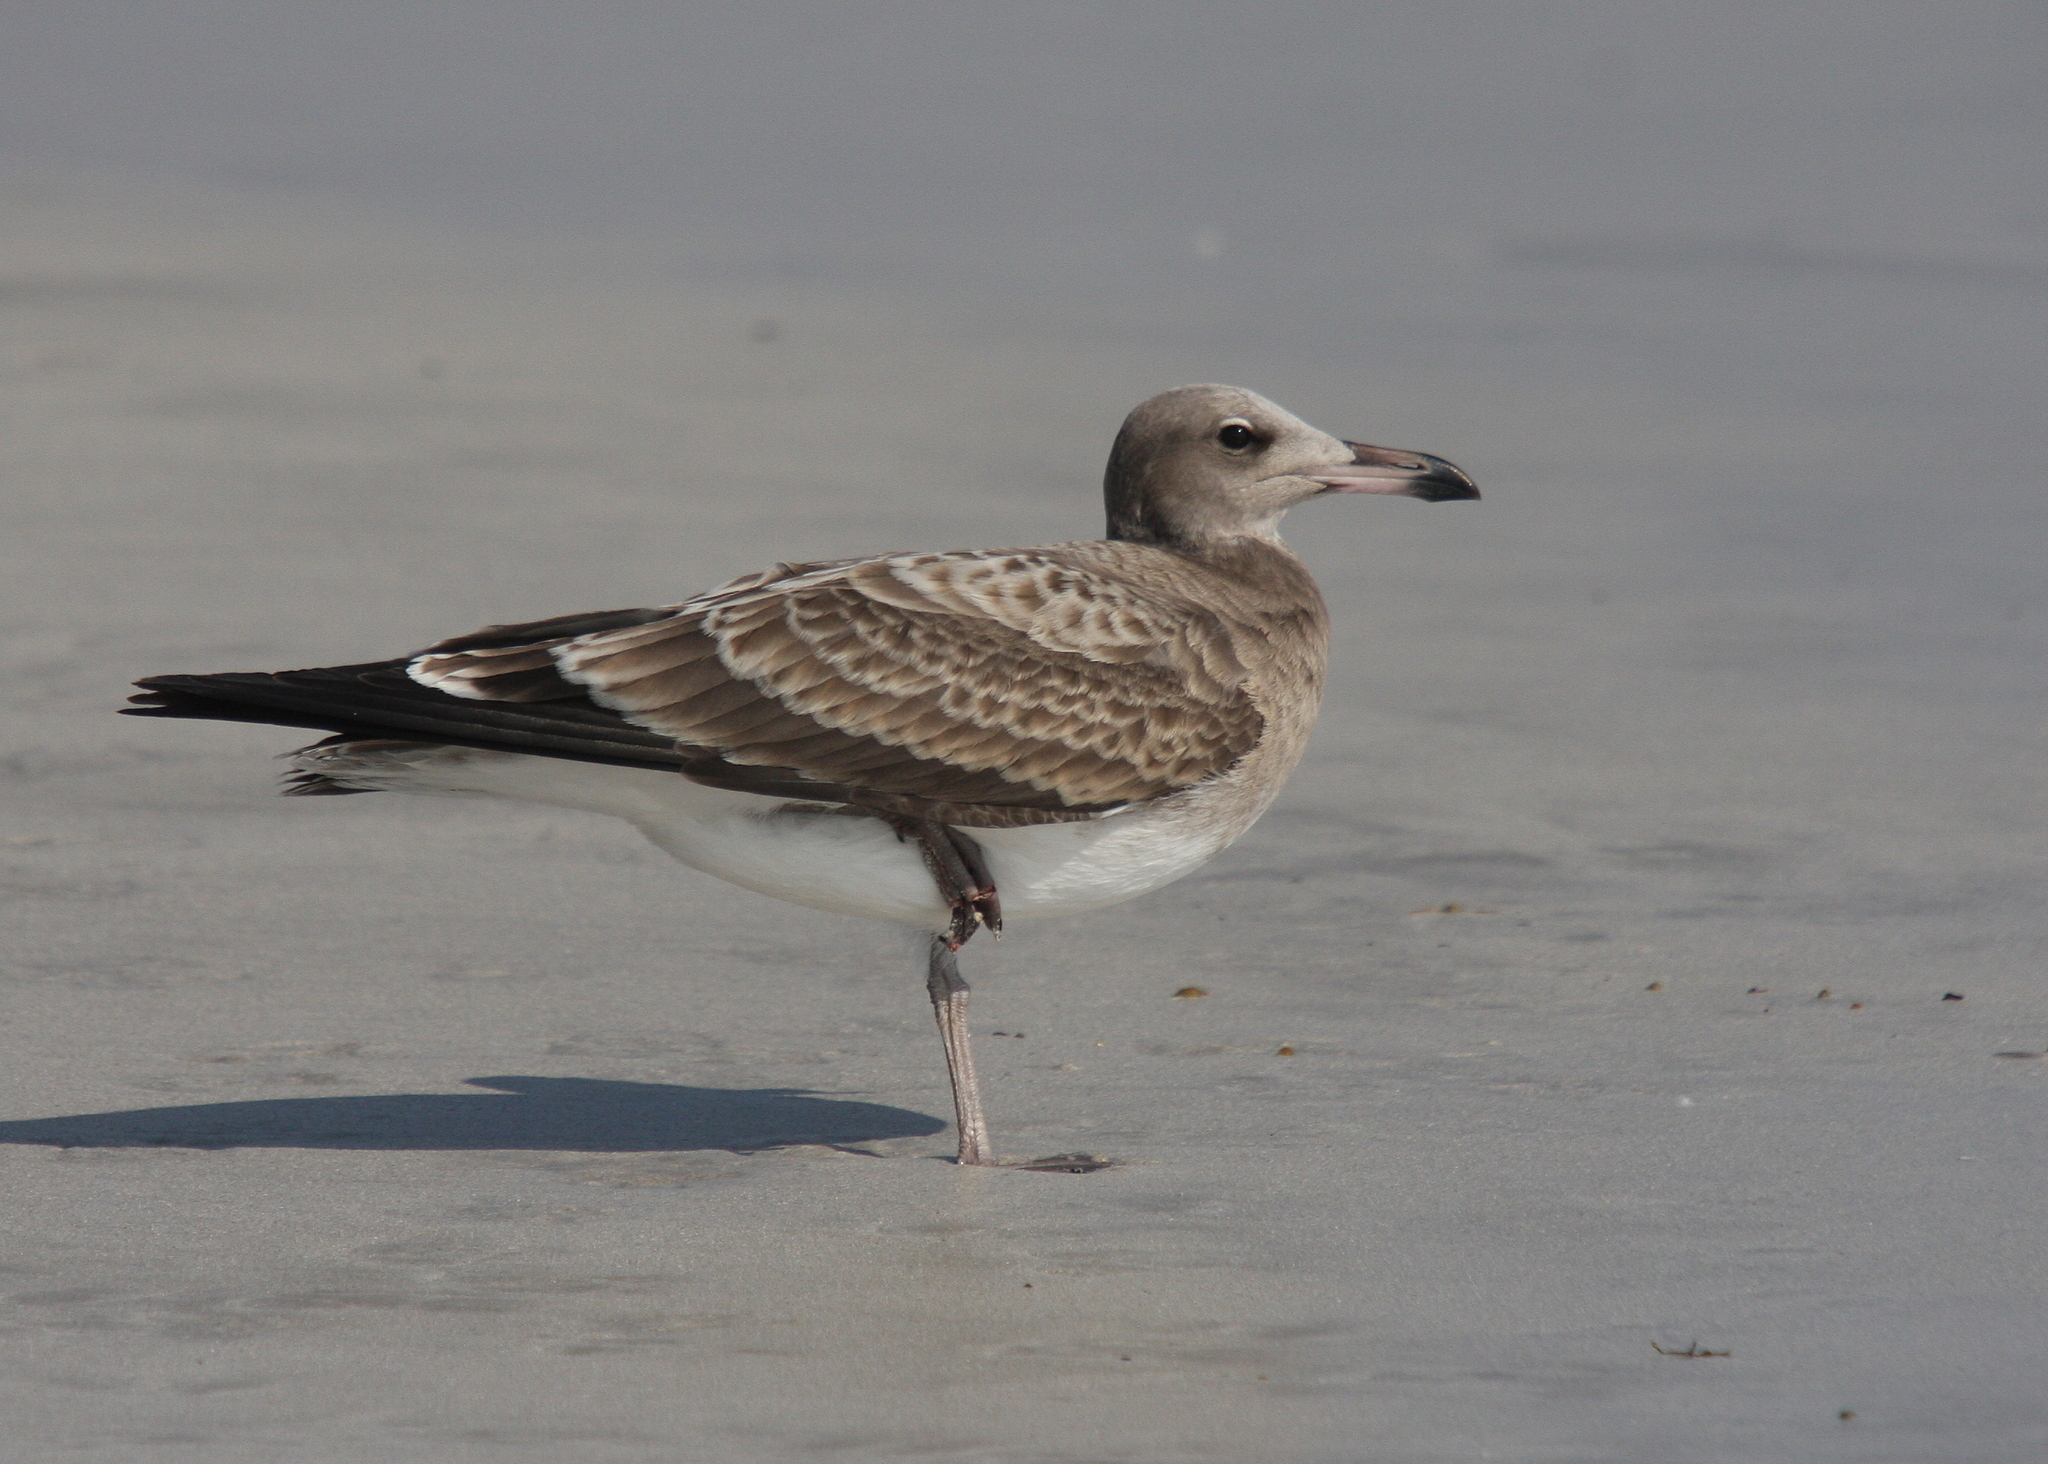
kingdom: Animalia
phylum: Chordata
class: Aves
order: Charadriiformes
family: Laridae
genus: Ichthyaetus
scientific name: Ichthyaetus hemprichii
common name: Sooty gull
